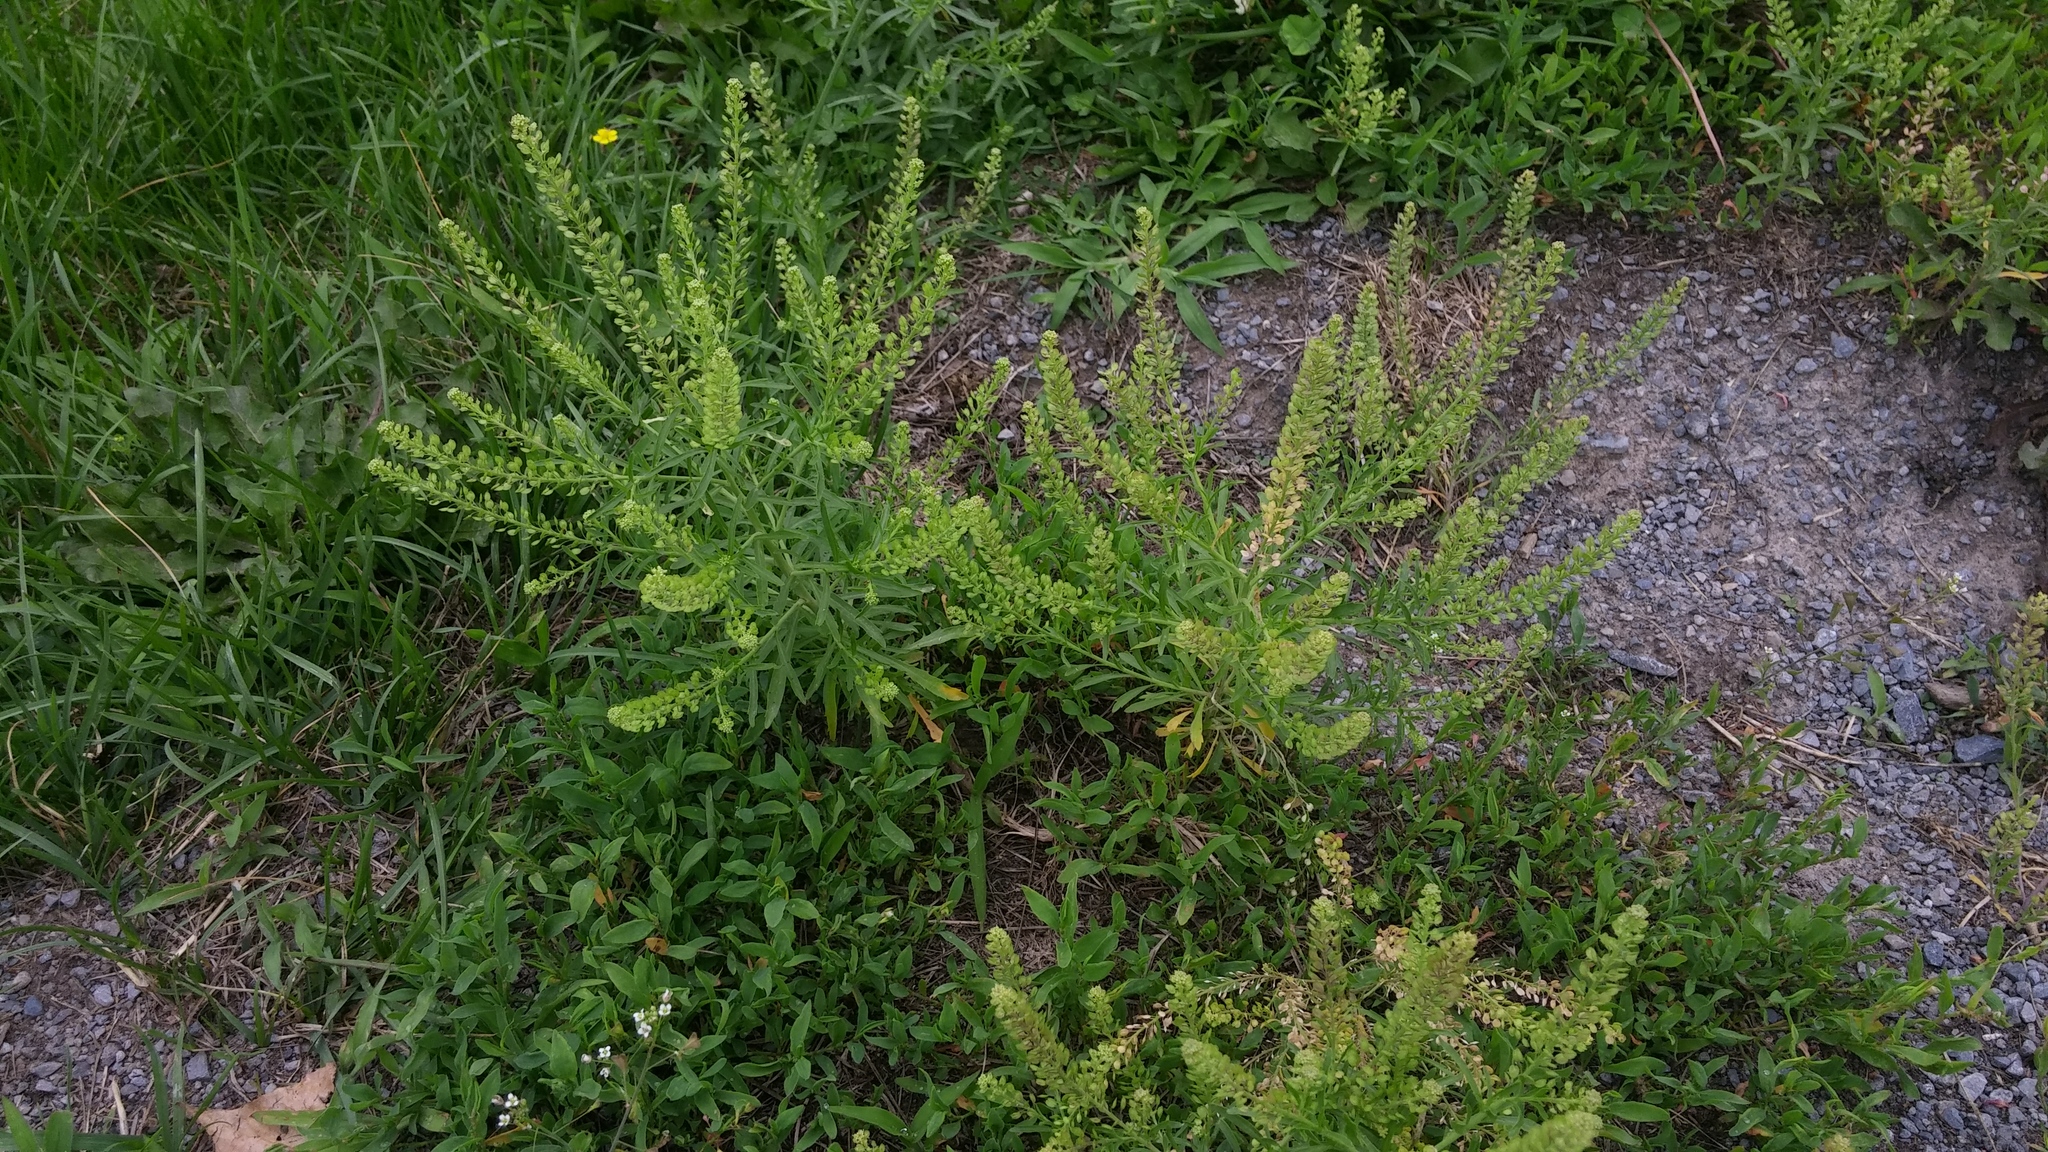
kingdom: Plantae
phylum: Tracheophyta
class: Magnoliopsida
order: Brassicales
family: Brassicaceae
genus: Lepidium
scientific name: Lepidium densiflorum
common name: Miner's pepperwort
